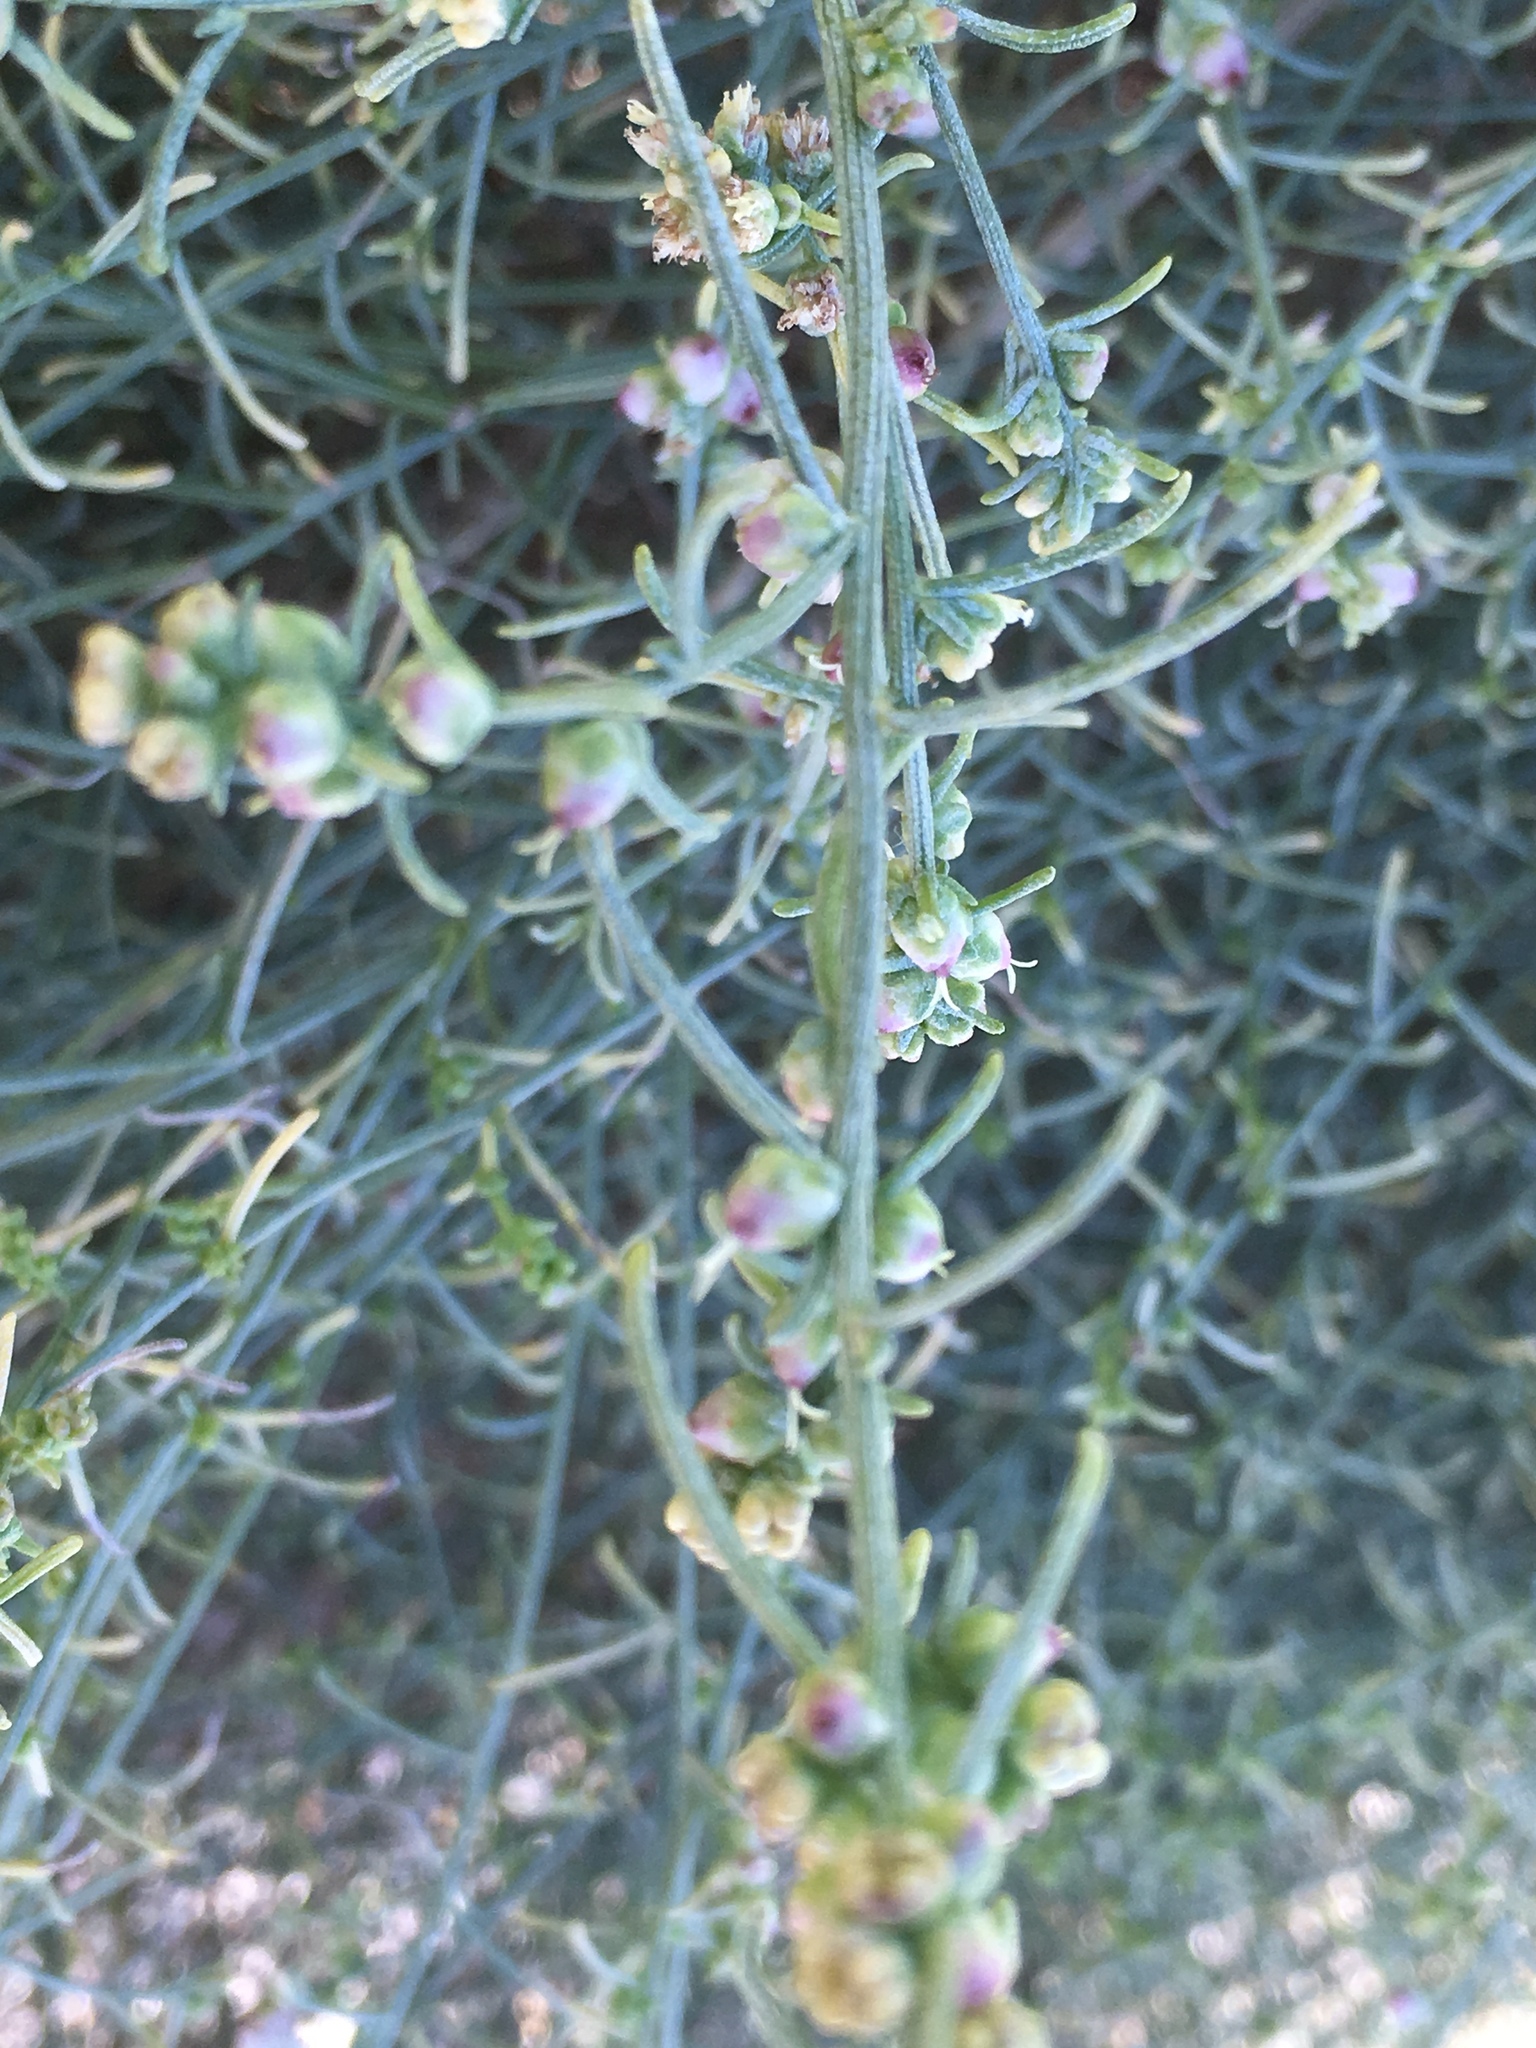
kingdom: Plantae
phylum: Tracheophyta
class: Magnoliopsida
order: Asterales
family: Asteraceae
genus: Ambrosia
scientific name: Ambrosia salsola
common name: Burrobrush
